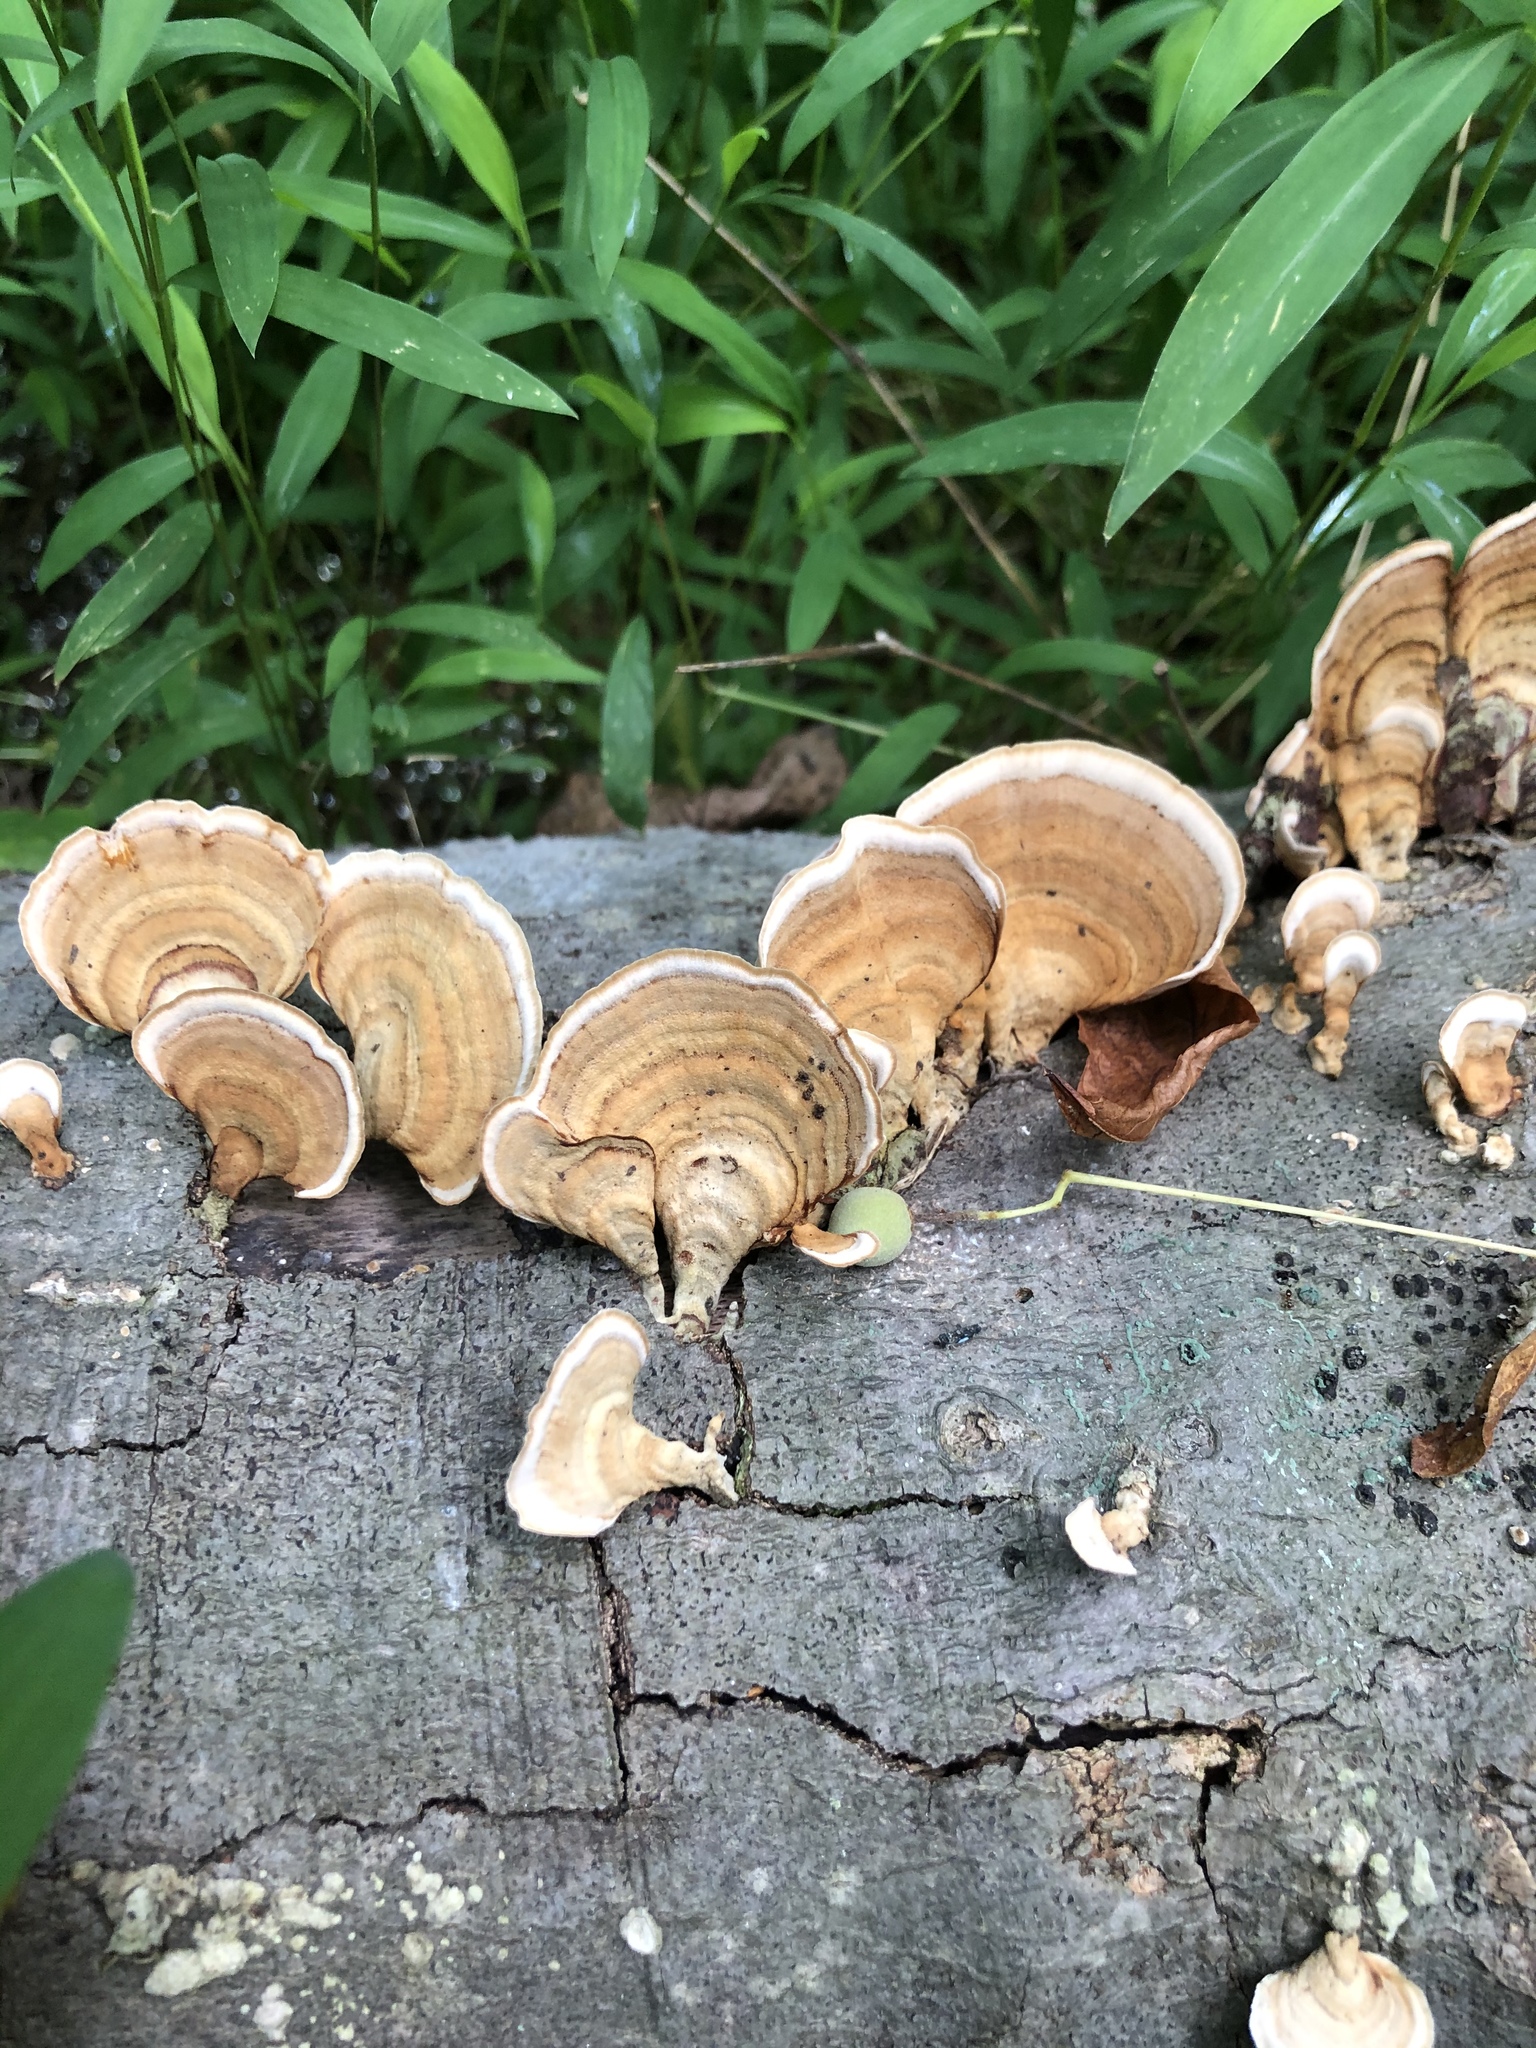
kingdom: Fungi
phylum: Basidiomycota
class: Agaricomycetes
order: Russulales
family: Stereaceae
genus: Stereum
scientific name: Stereum ostrea
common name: False turkeytail
